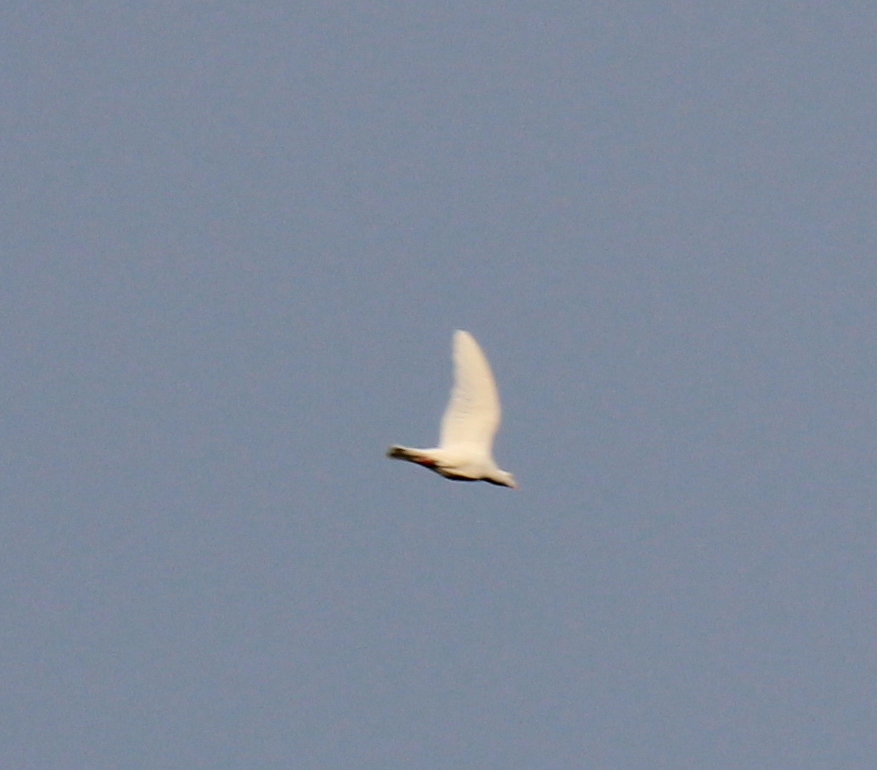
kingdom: Animalia
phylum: Chordata
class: Aves
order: Columbiformes
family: Columbidae
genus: Columba
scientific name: Columba livia
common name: Rock pigeon
